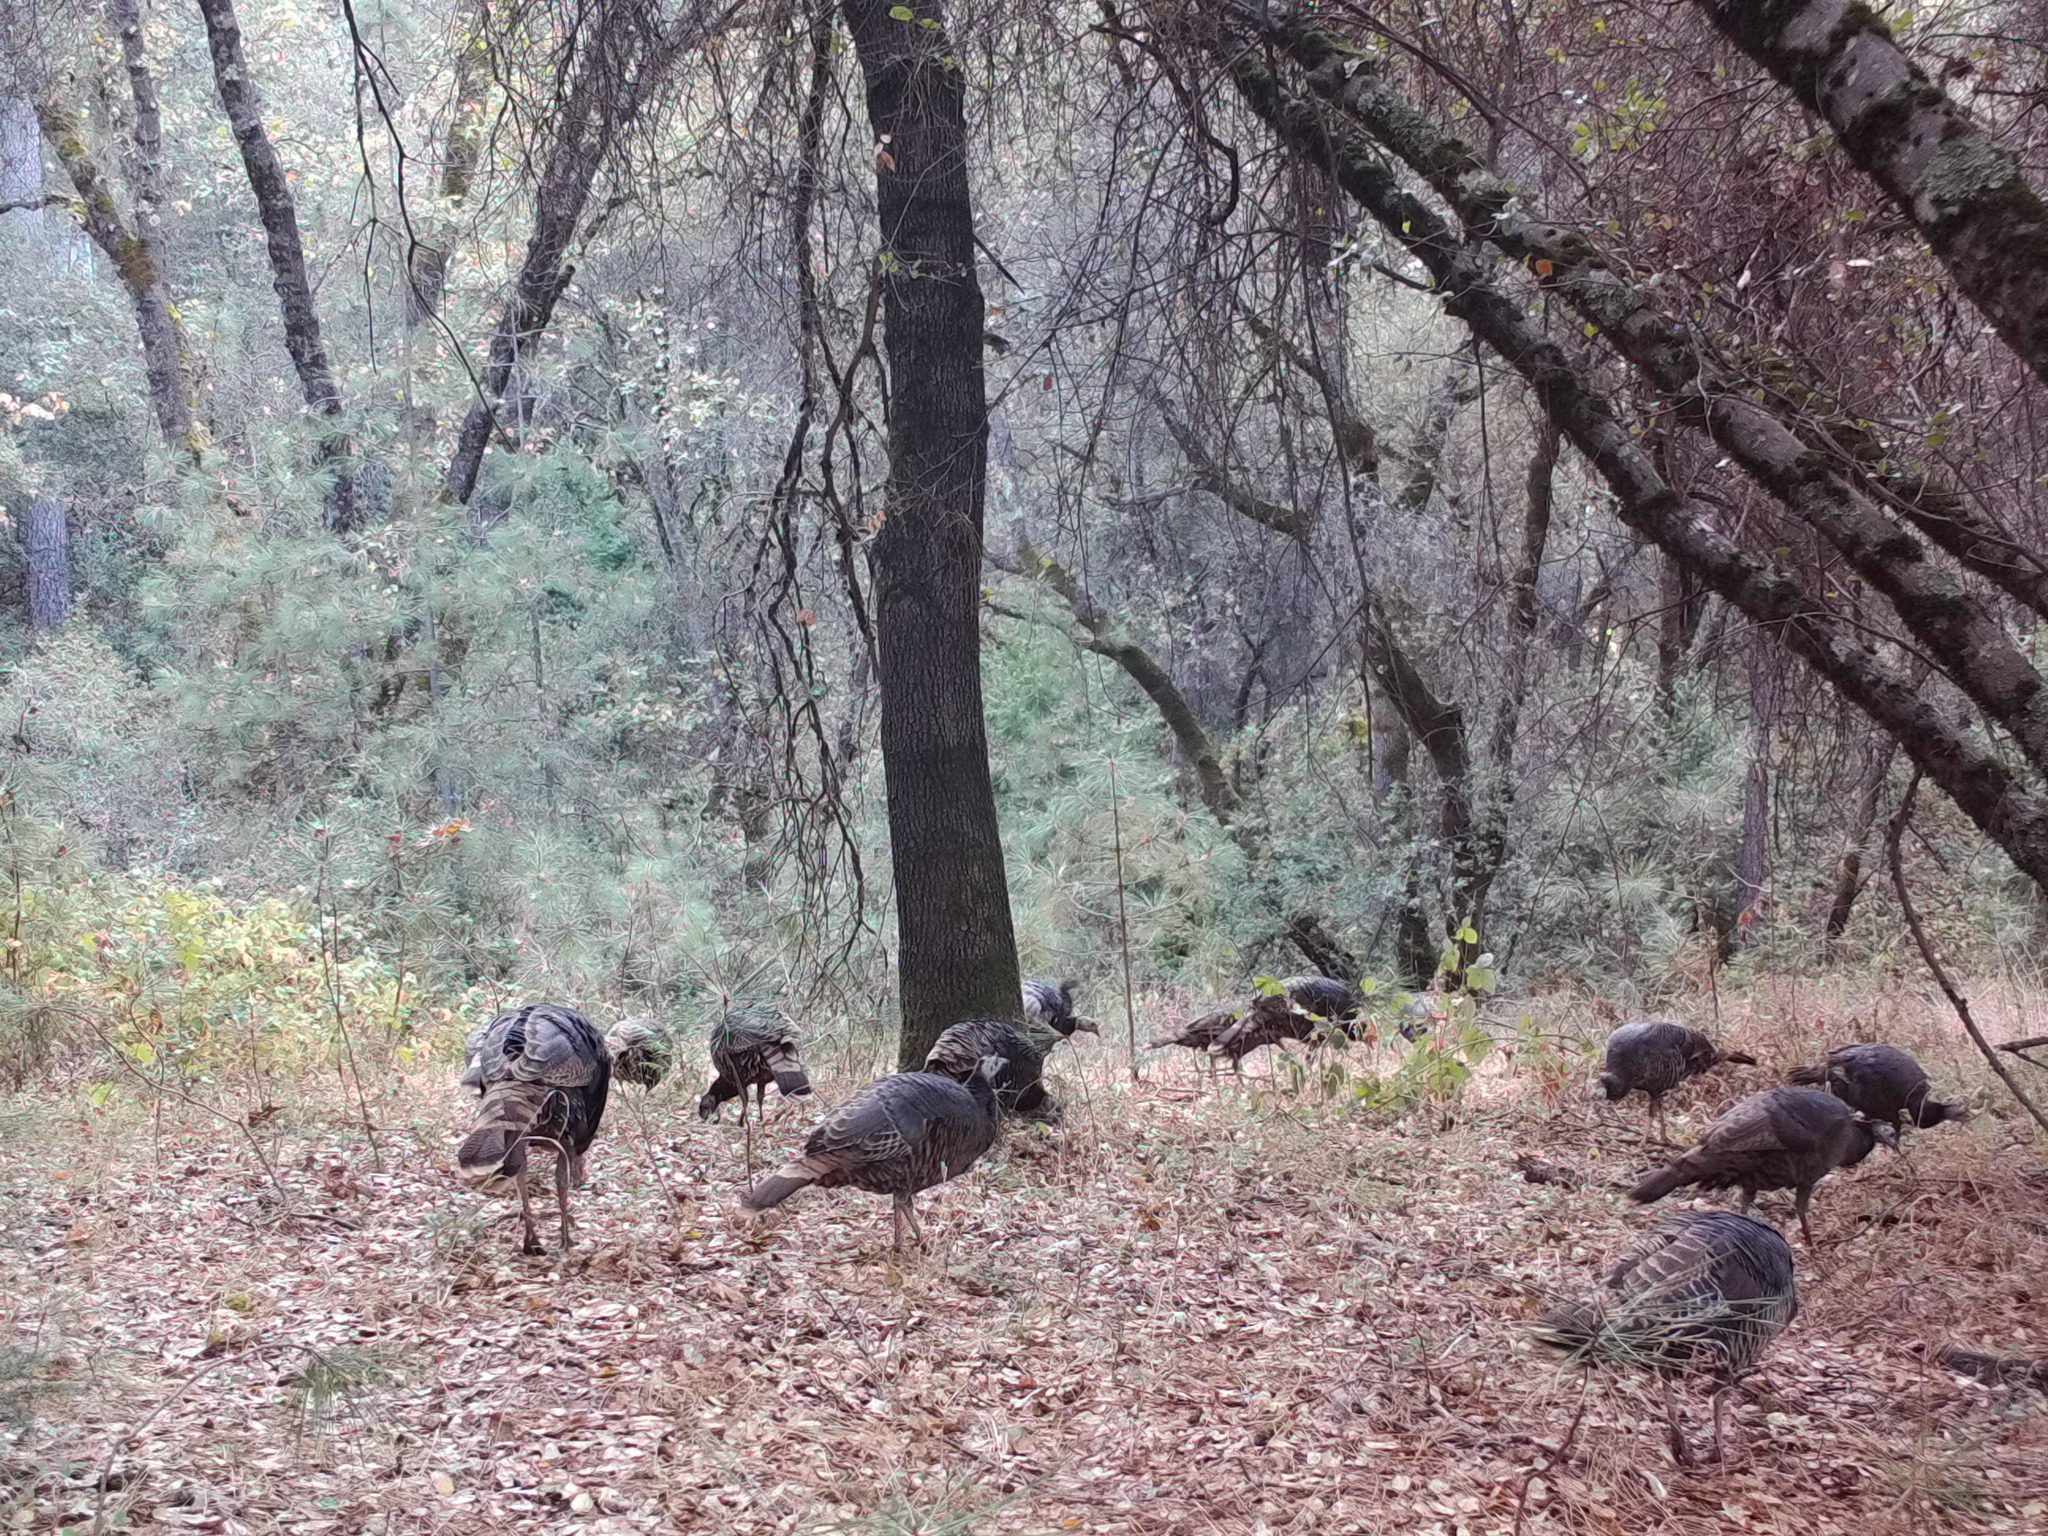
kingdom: Animalia
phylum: Chordata
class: Aves
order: Galliformes
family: Phasianidae
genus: Meleagris
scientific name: Meleagris gallopavo
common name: Wild turkey
